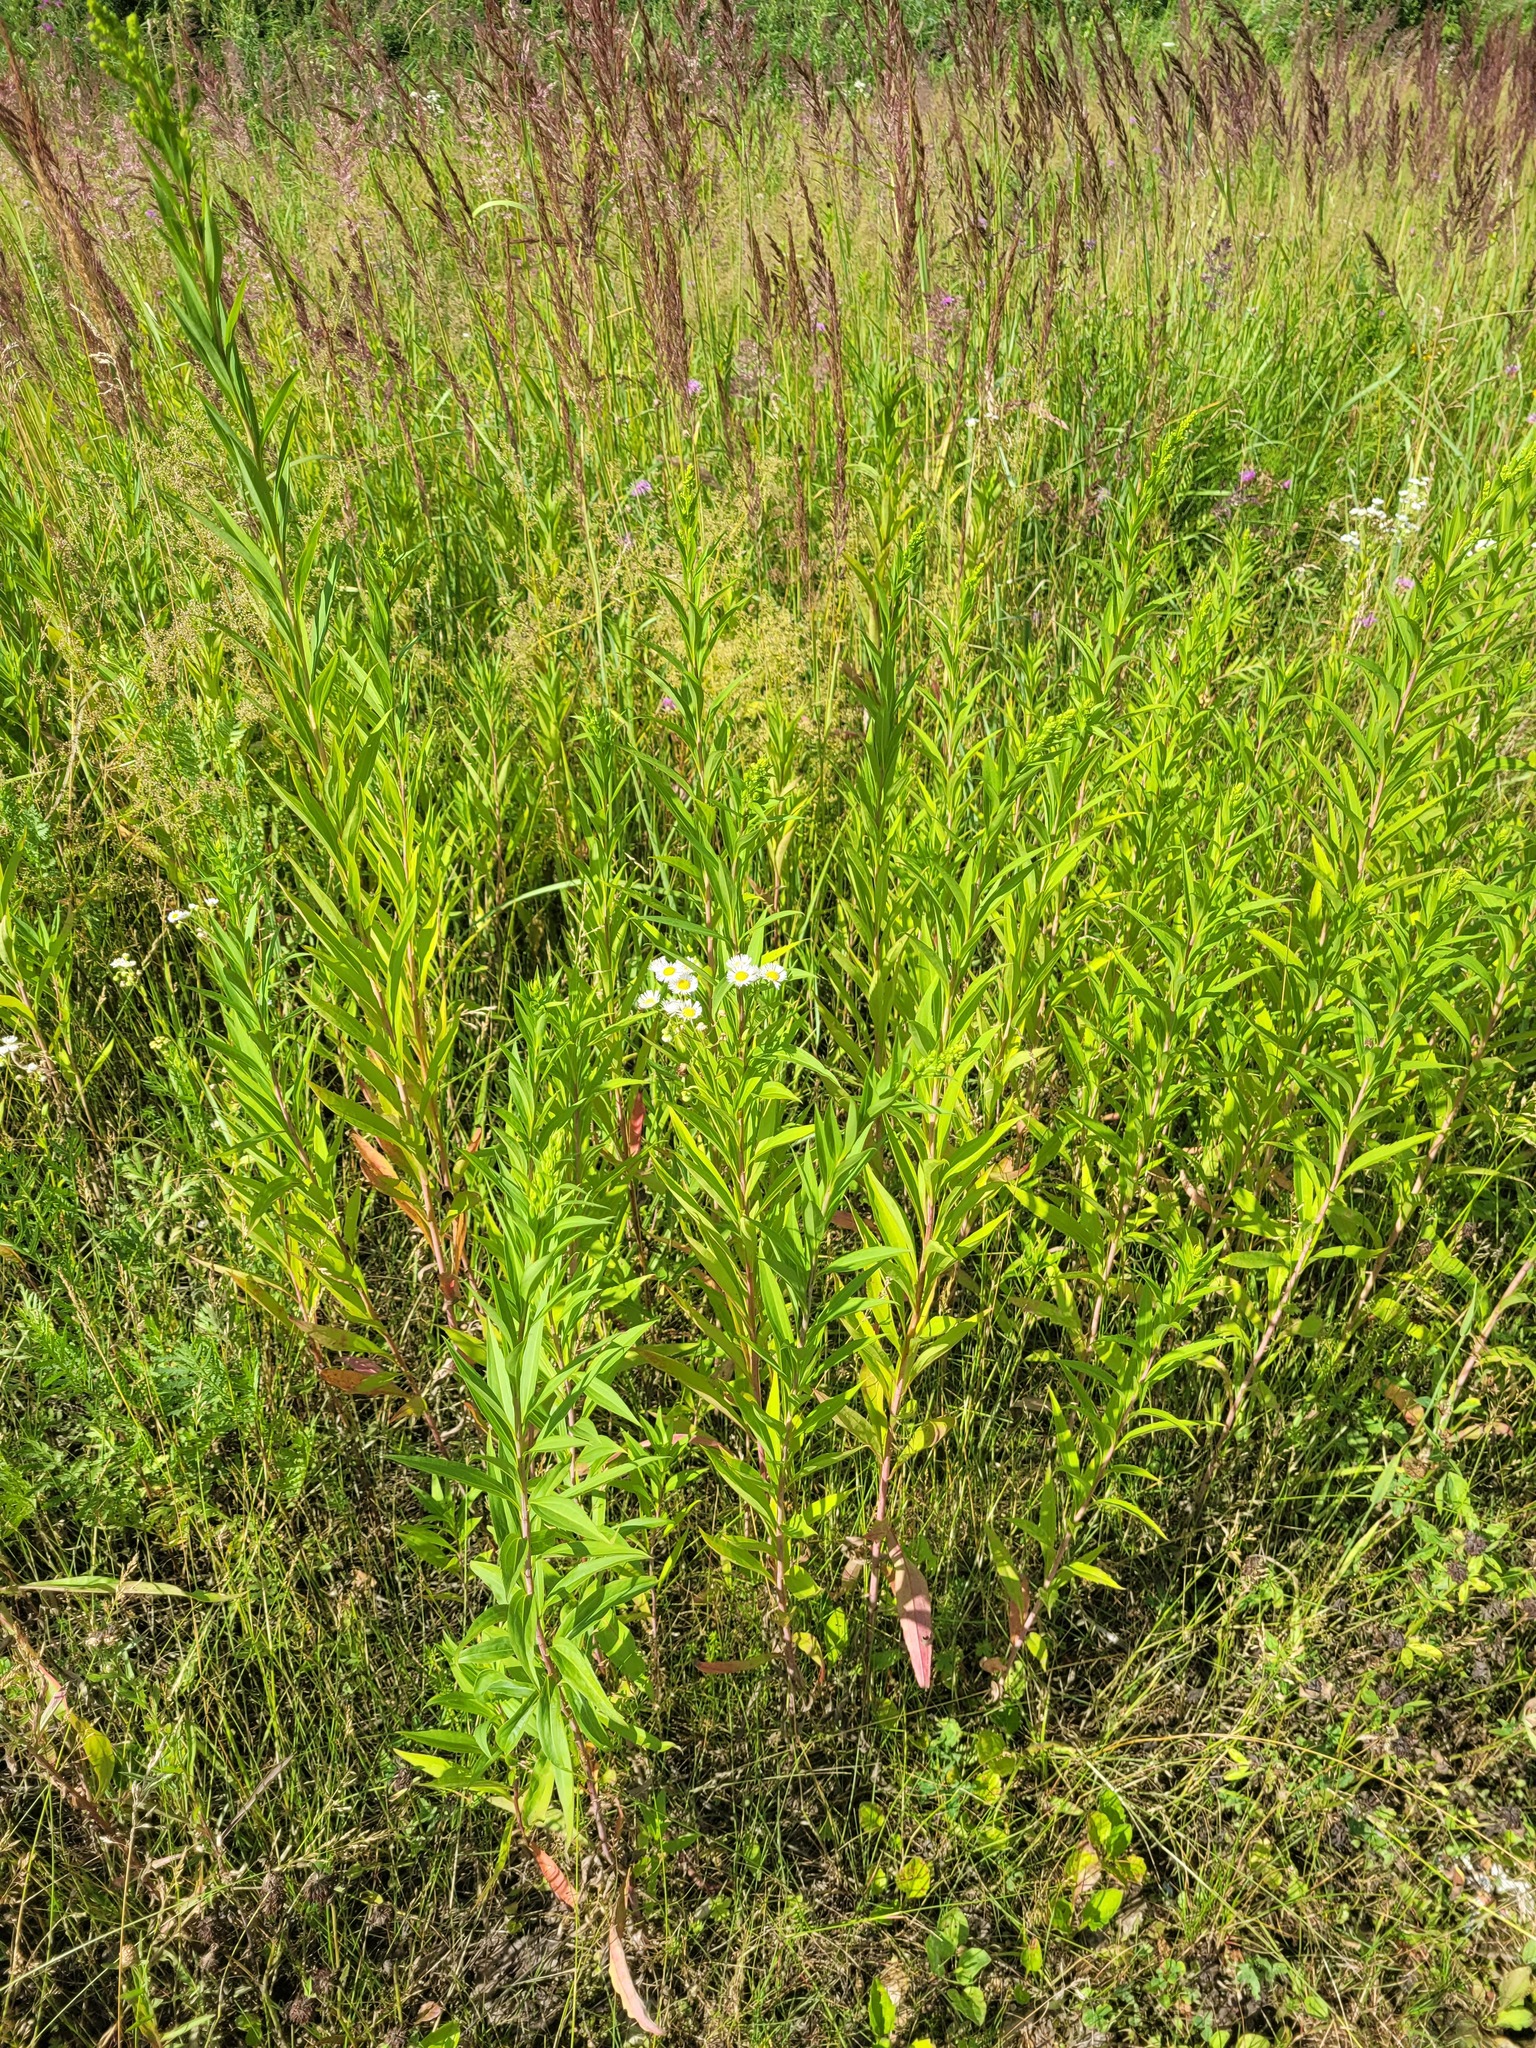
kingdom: Plantae
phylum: Tracheophyta
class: Magnoliopsida
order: Asterales
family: Asteraceae
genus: Solidago
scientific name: Solidago gigantea
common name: Giant goldenrod
